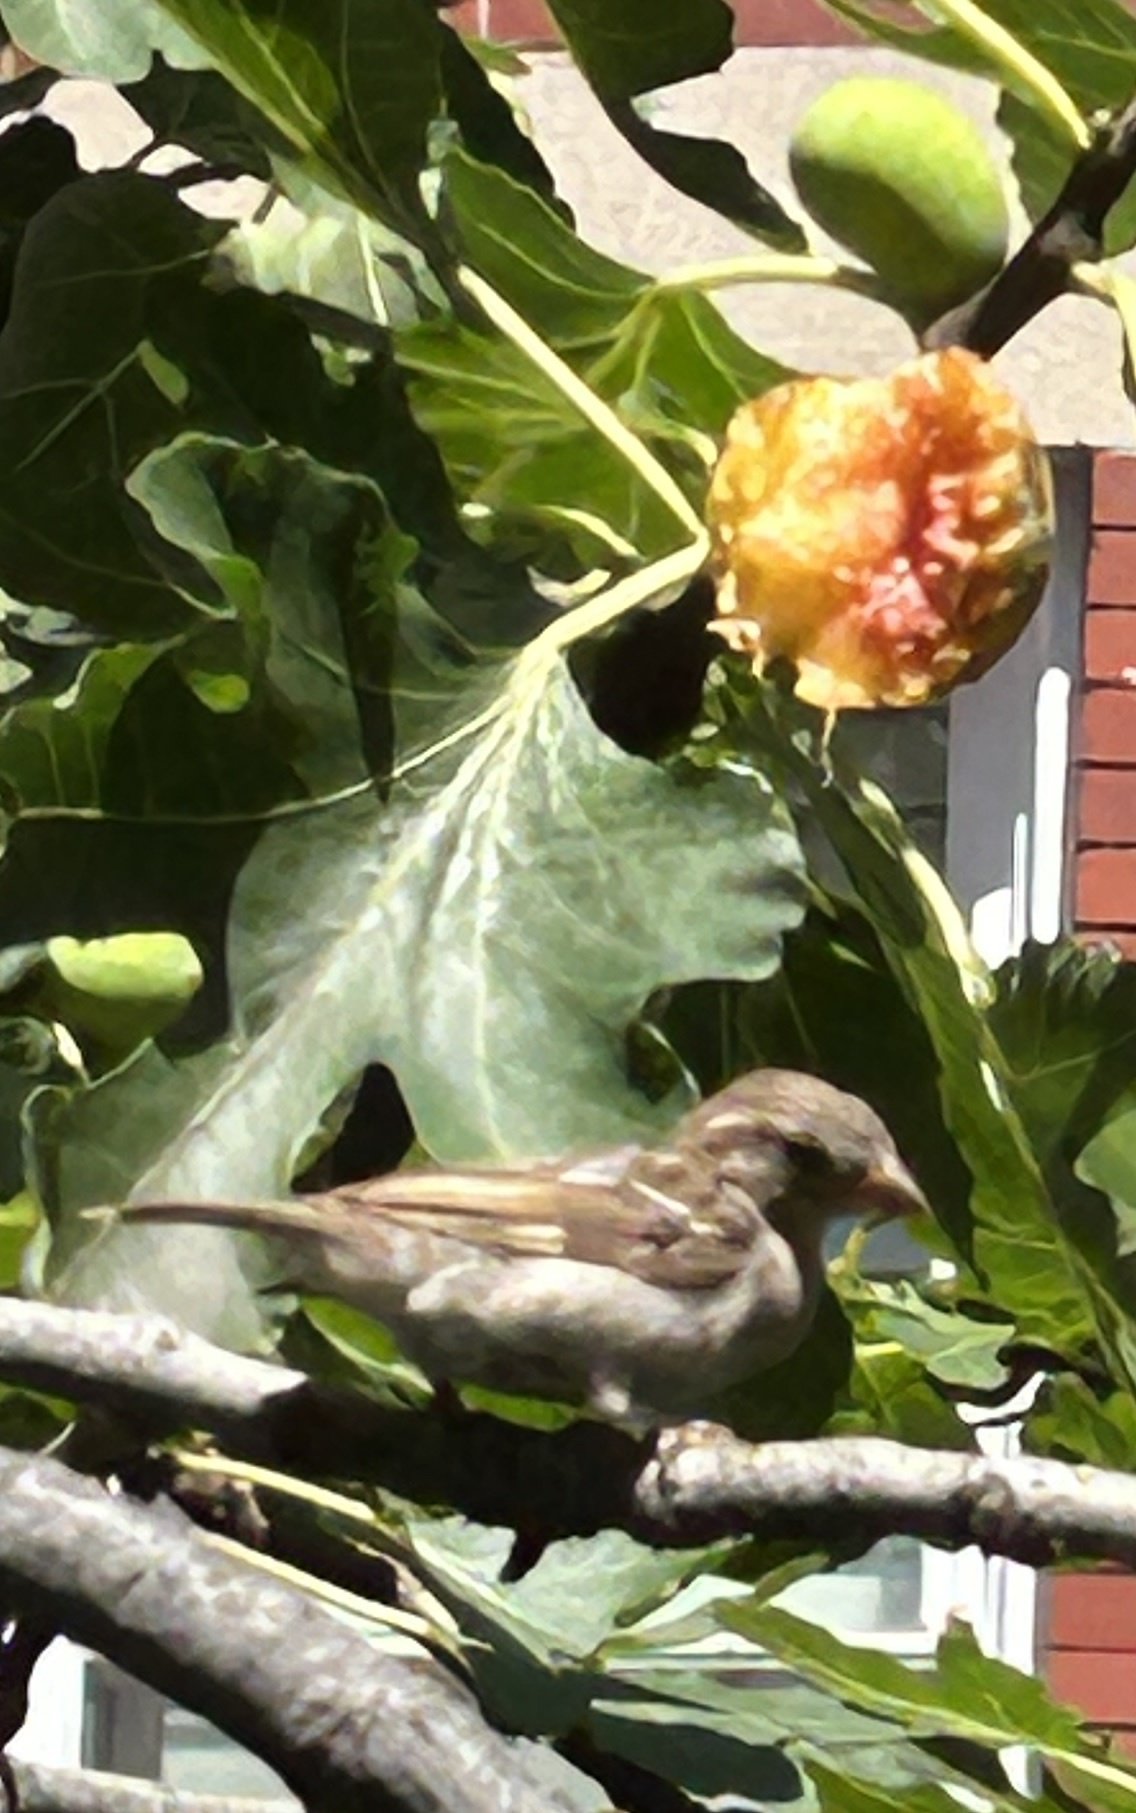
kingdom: Animalia
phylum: Chordata
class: Aves
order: Passeriformes
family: Passeridae
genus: Passer
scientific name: Passer domesticus
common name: House sparrow
